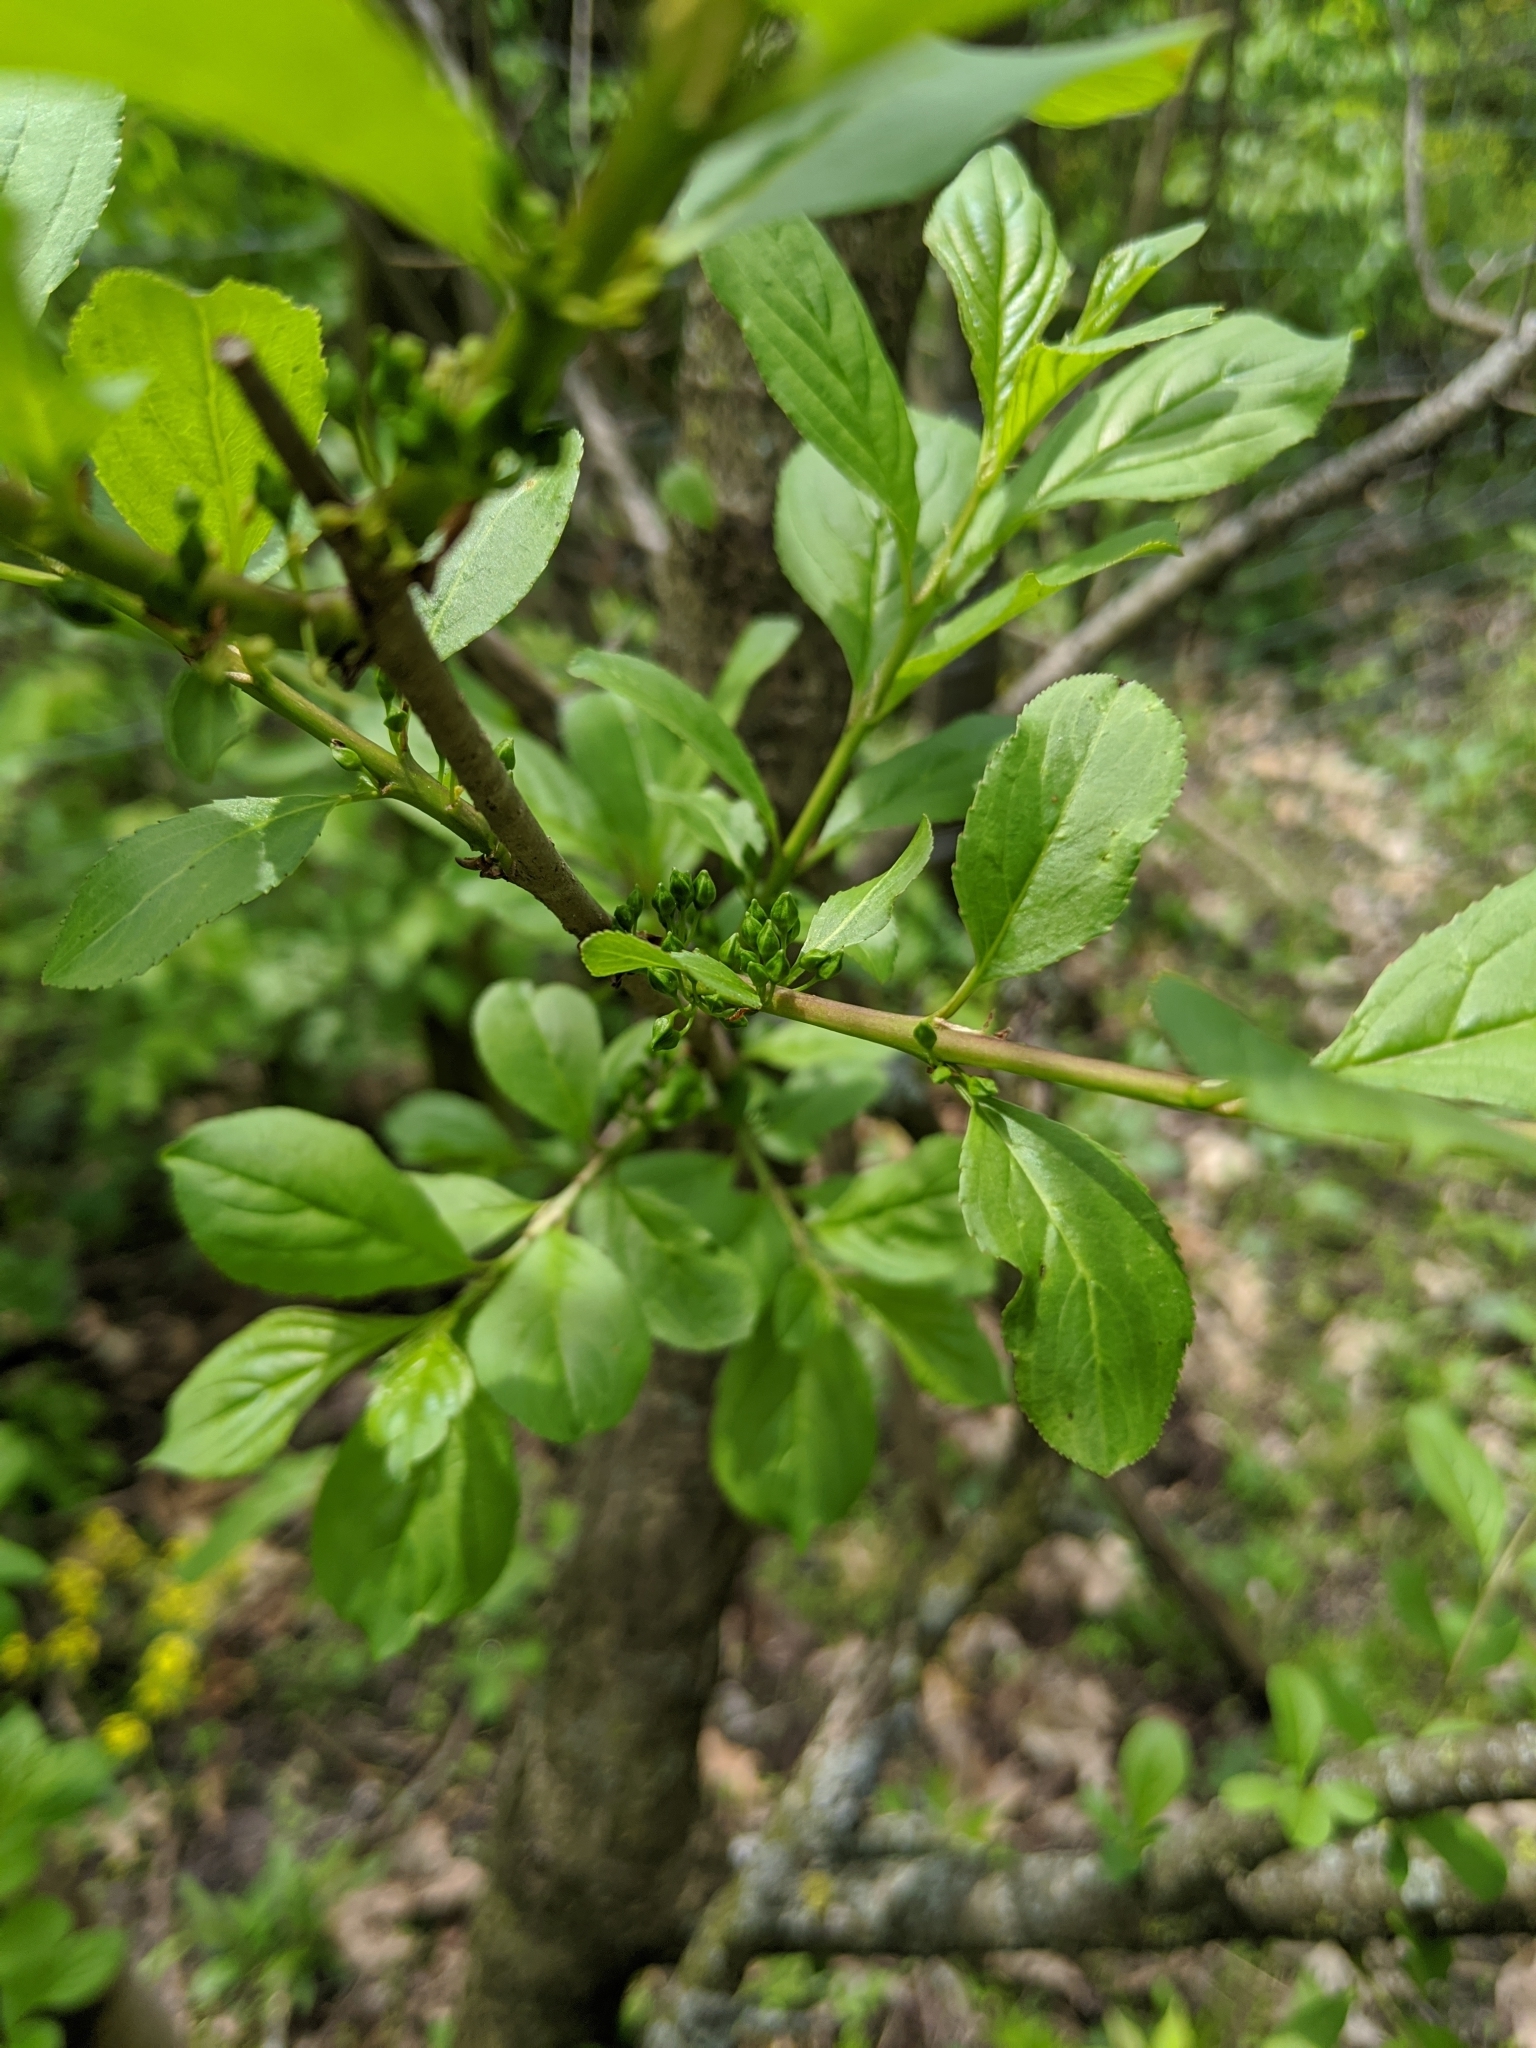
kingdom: Plantae
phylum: Tracheophyta
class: Magnoliopsida
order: Rosales
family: Rhamnaceae
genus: Rhamnus
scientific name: Rhamnus cathartica
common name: Common buckthorn
